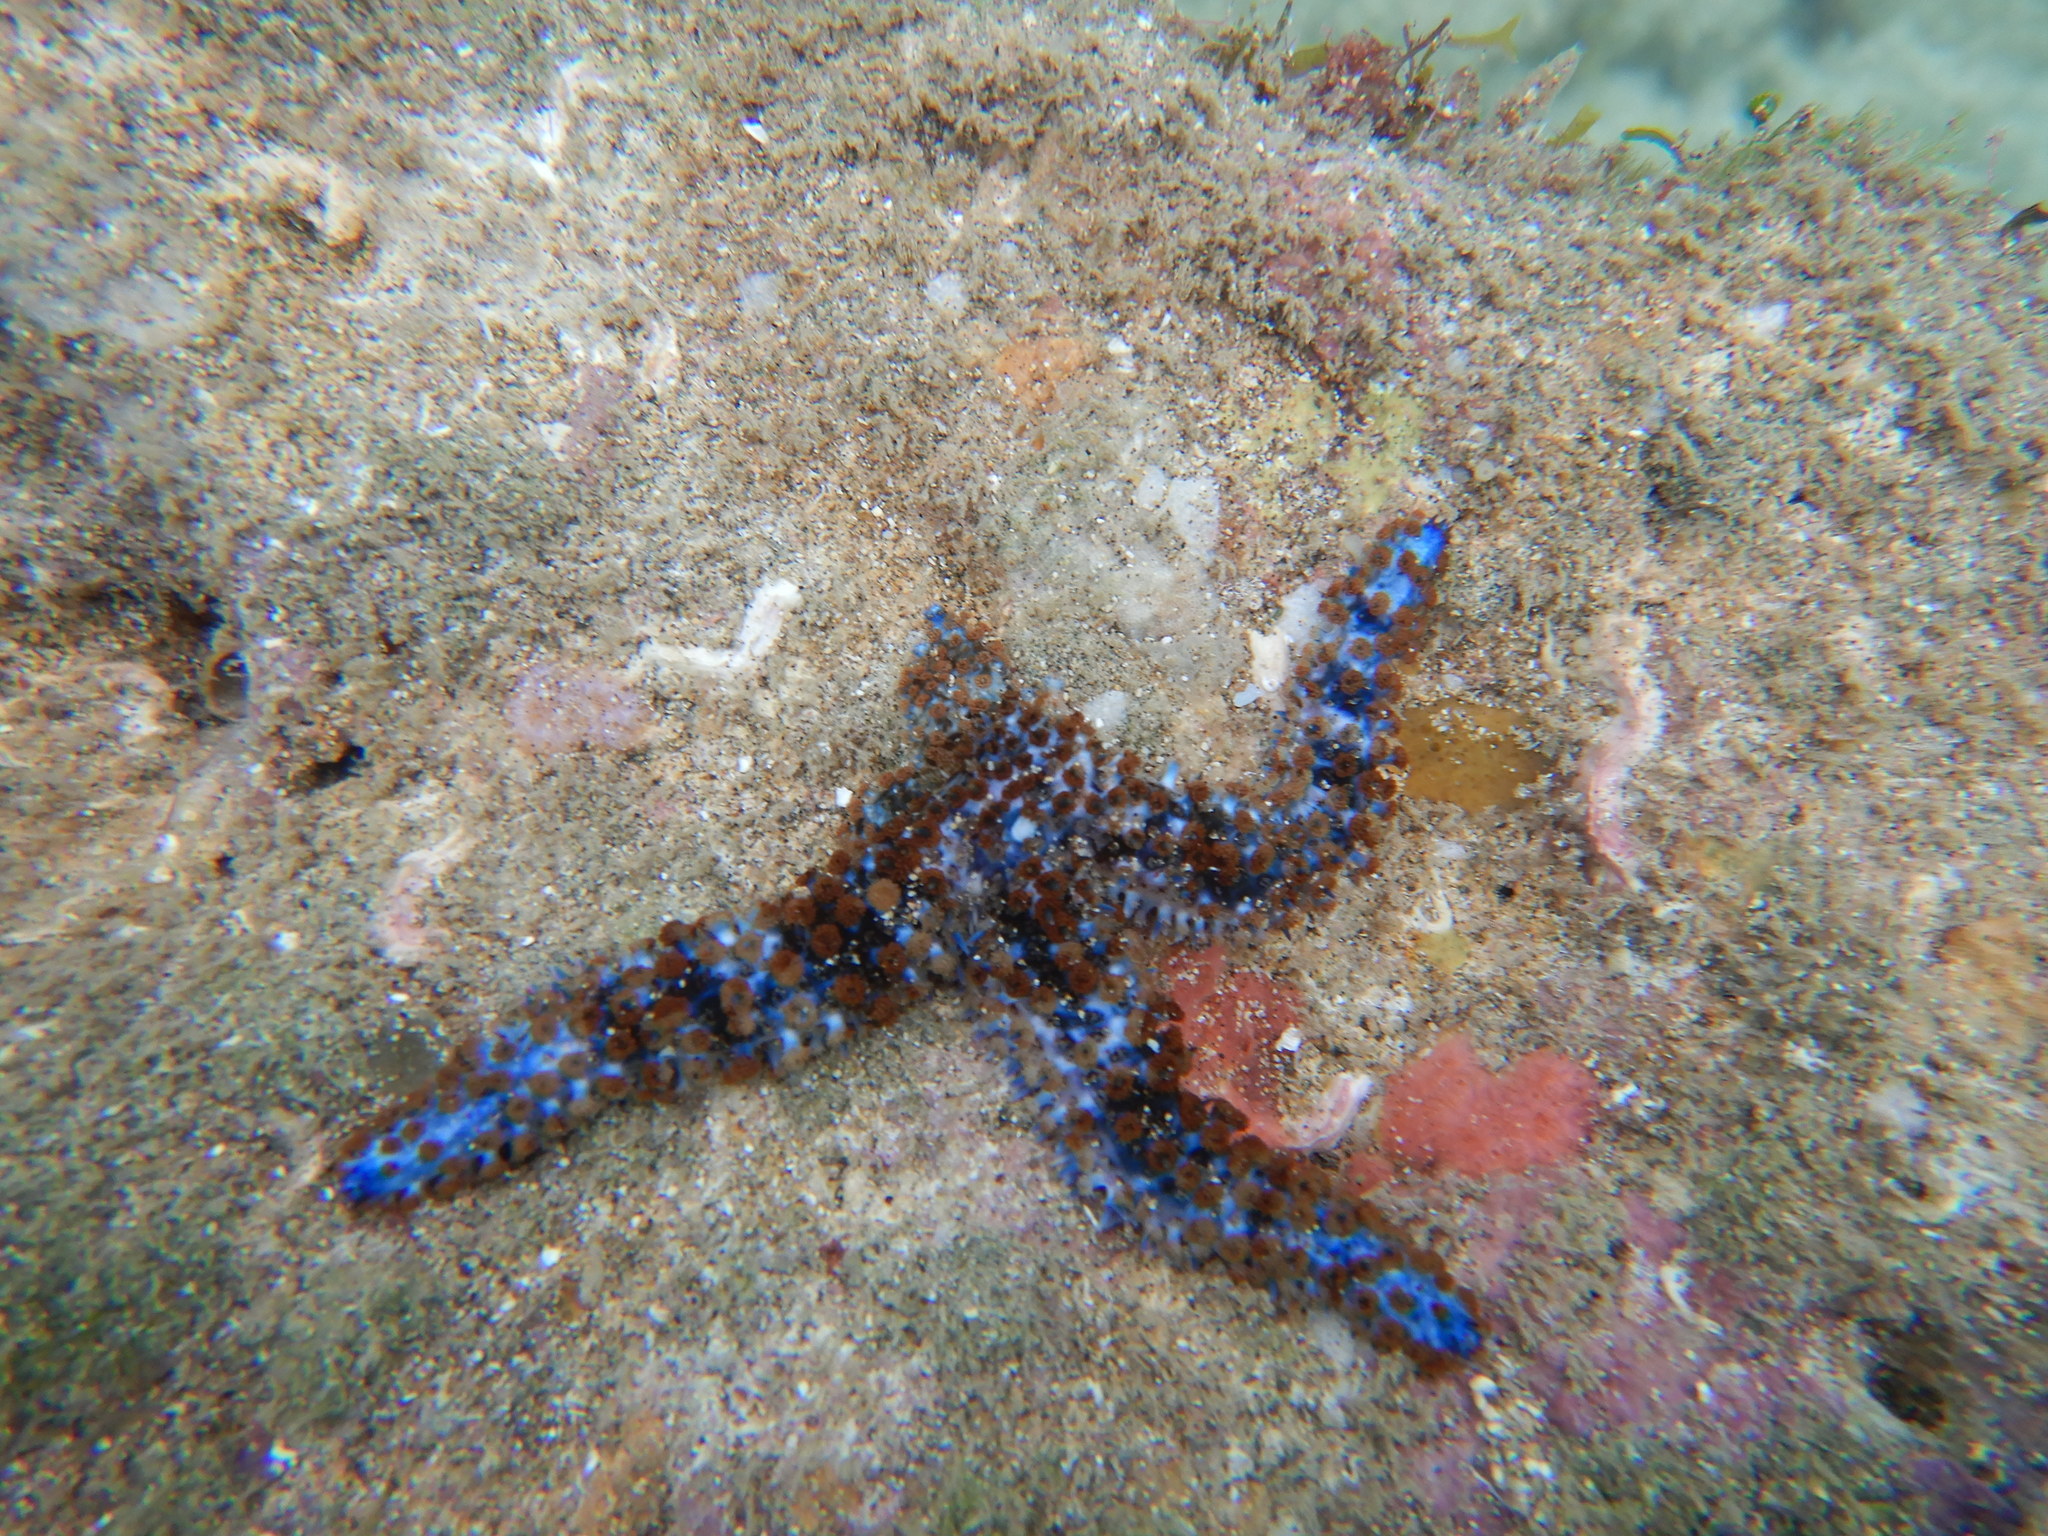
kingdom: Animalia
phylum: Echinodermata
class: Asteroidea
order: Forcipulatida
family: Asteriidae
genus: Coscinasterias
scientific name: Coscinasterias tenuispina
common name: Blue spiny starfish
